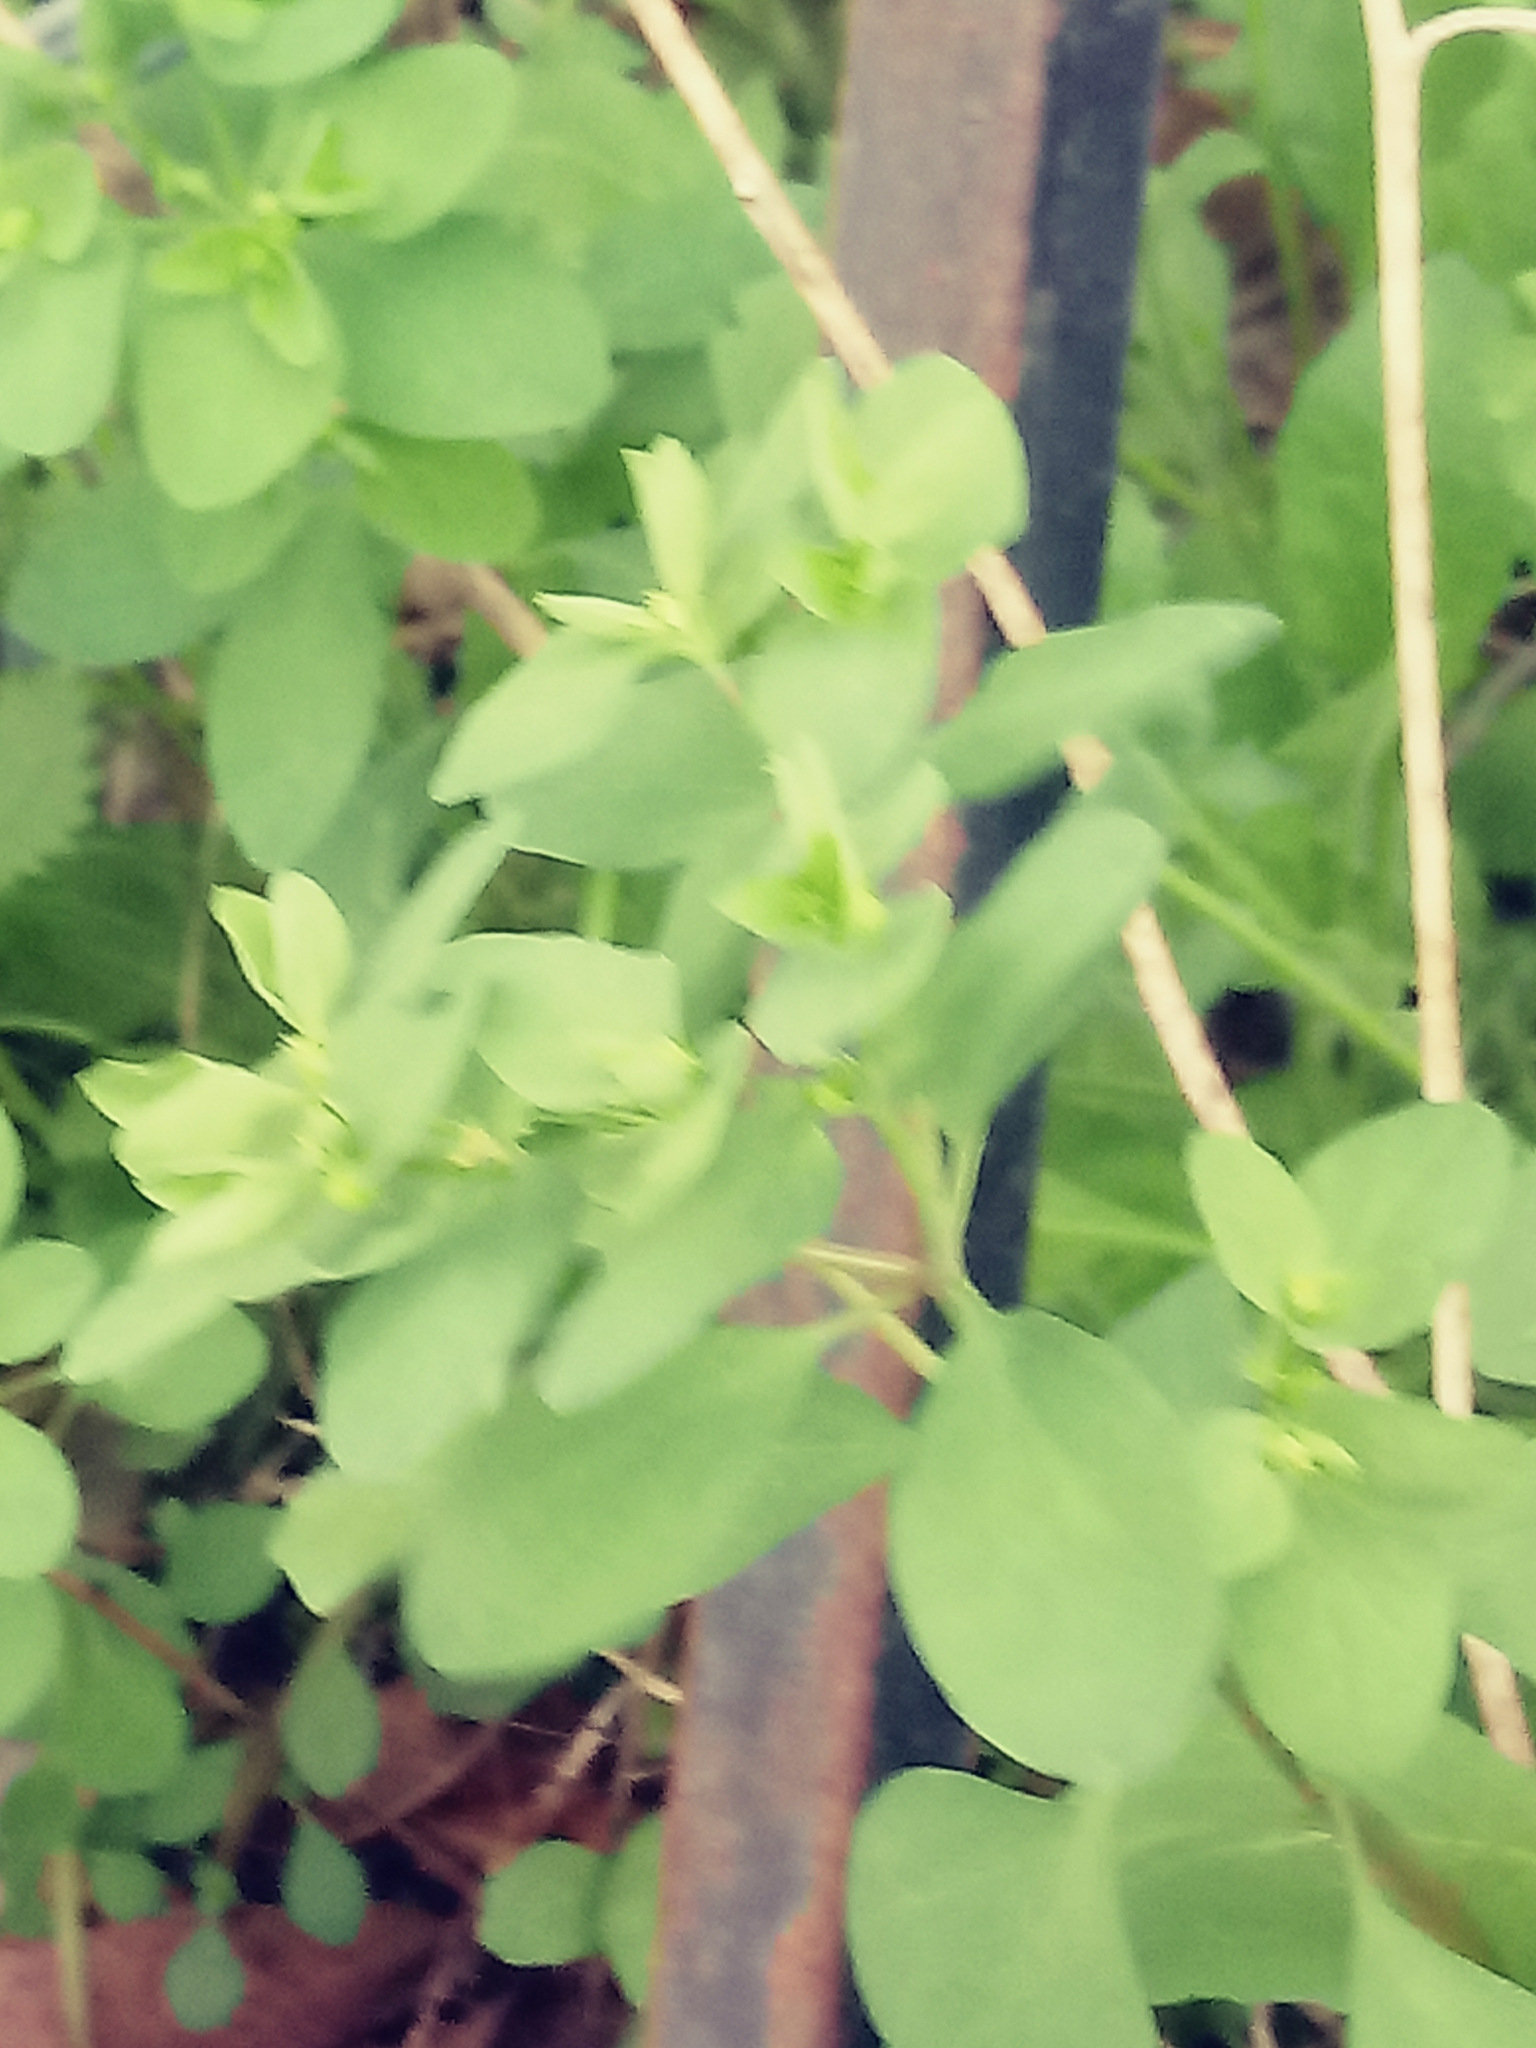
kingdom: Plantae
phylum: Tracheophyta
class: Magnoliopsida
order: Malpighiales
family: Euphorbiaceae
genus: Euphorbia
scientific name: Euphorbia peplus
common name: Petty spurge
